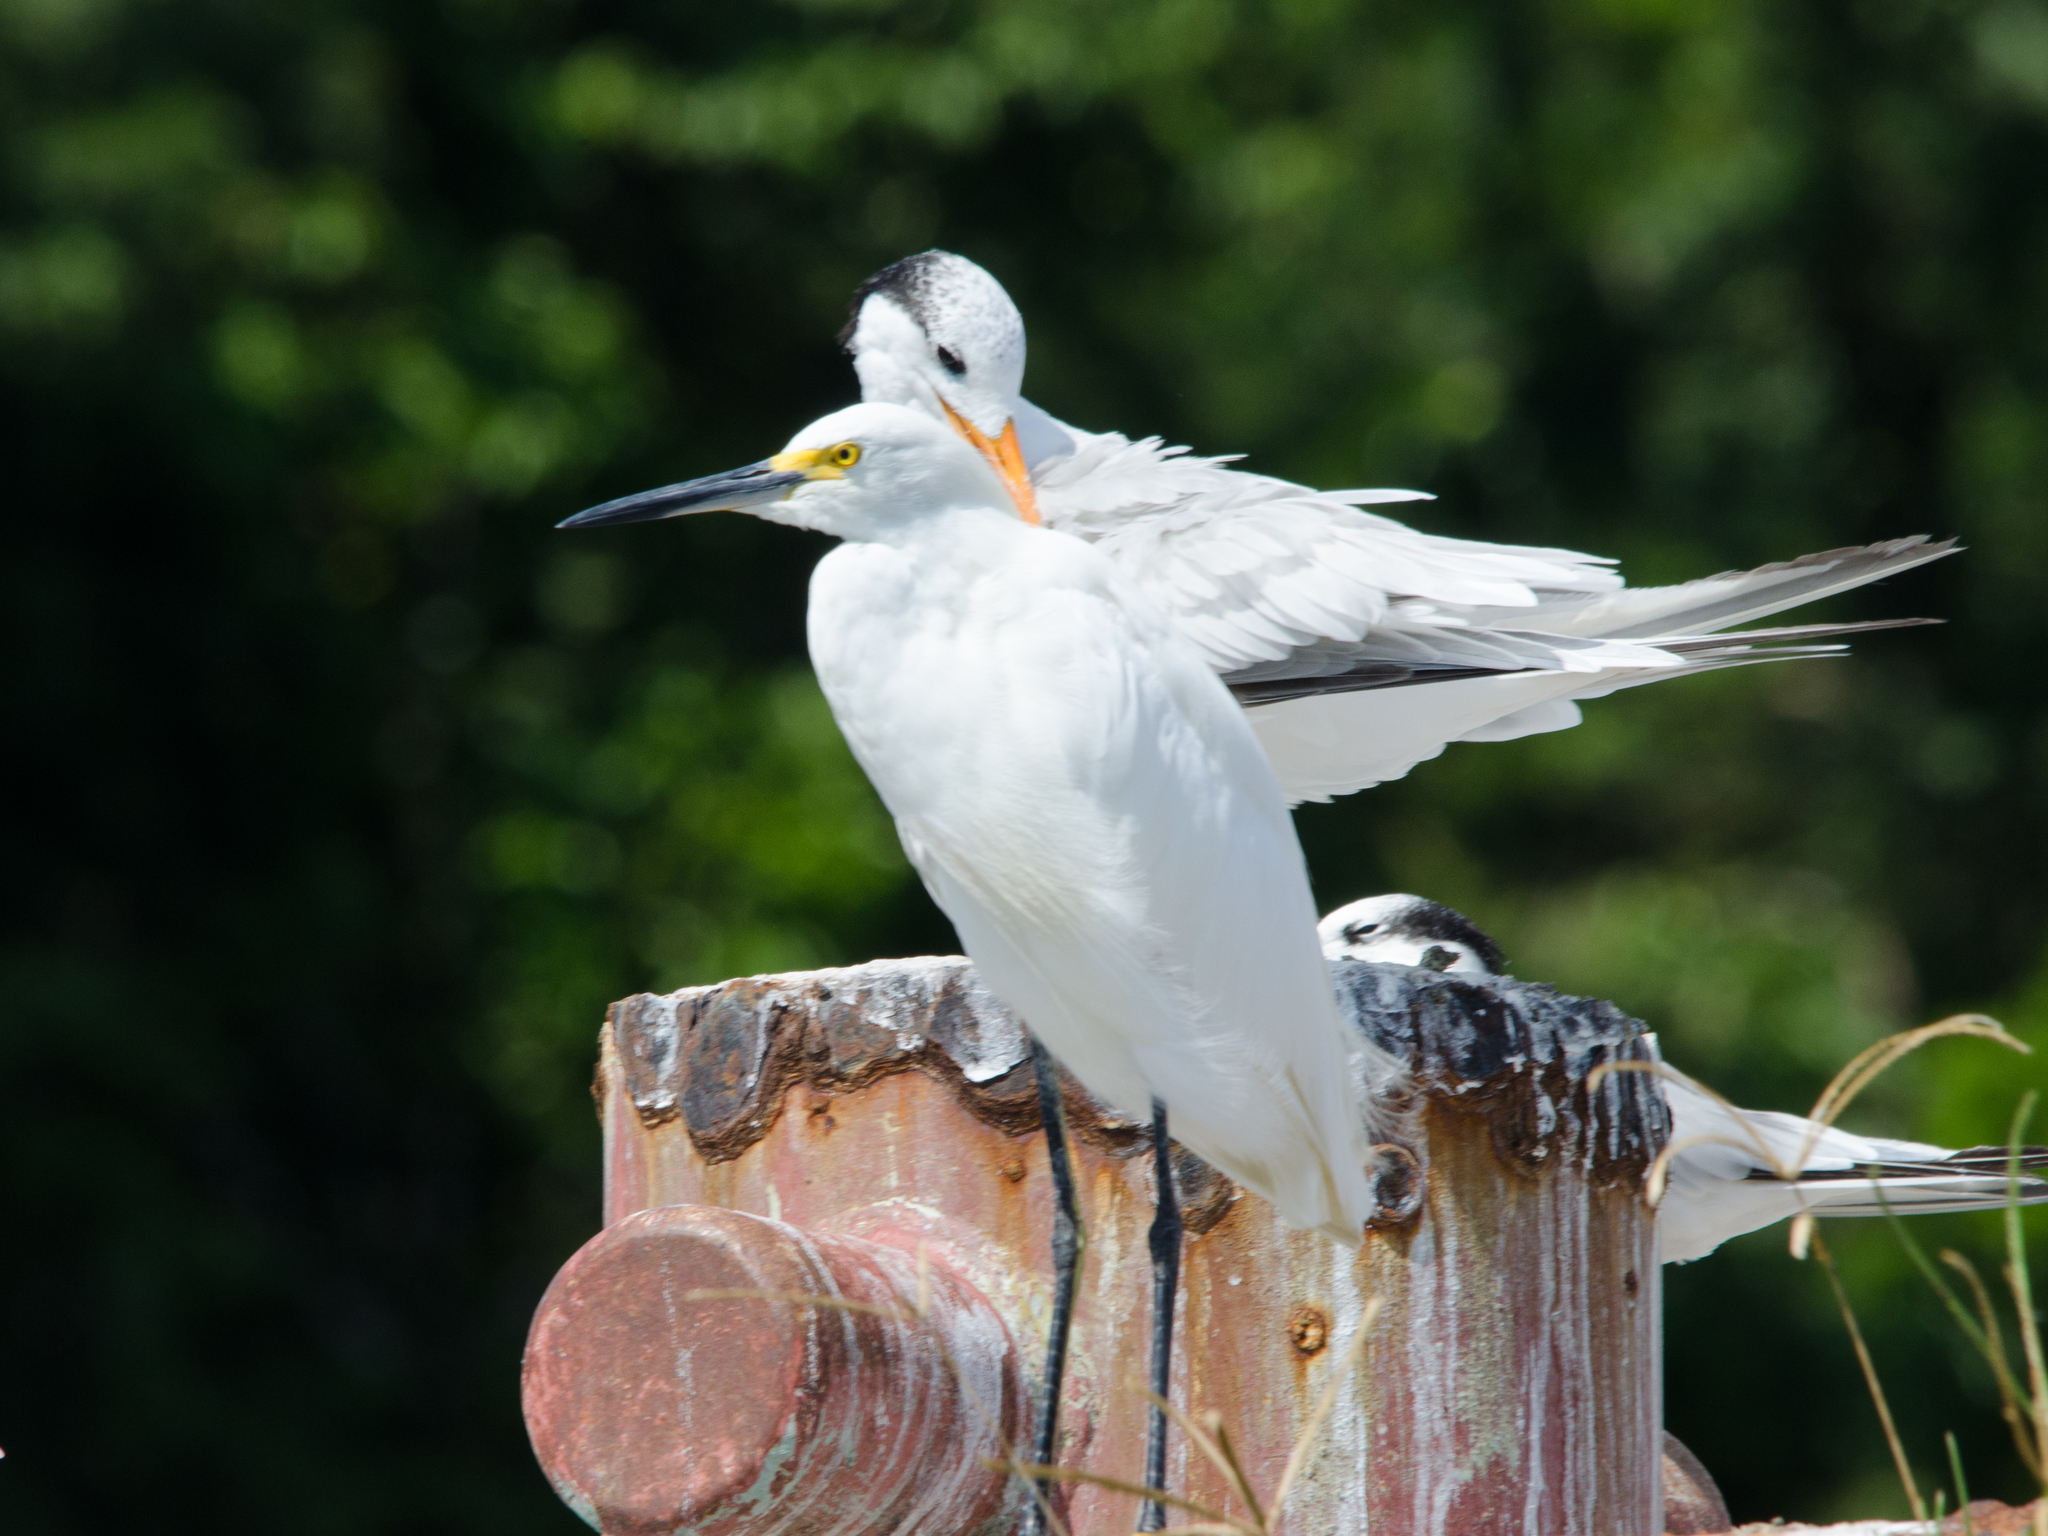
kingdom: Animalia
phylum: Chordata
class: Aves
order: Pelecaniformes
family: Ardeidae
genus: Egretta
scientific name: Egretta thula
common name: Snowy egret
